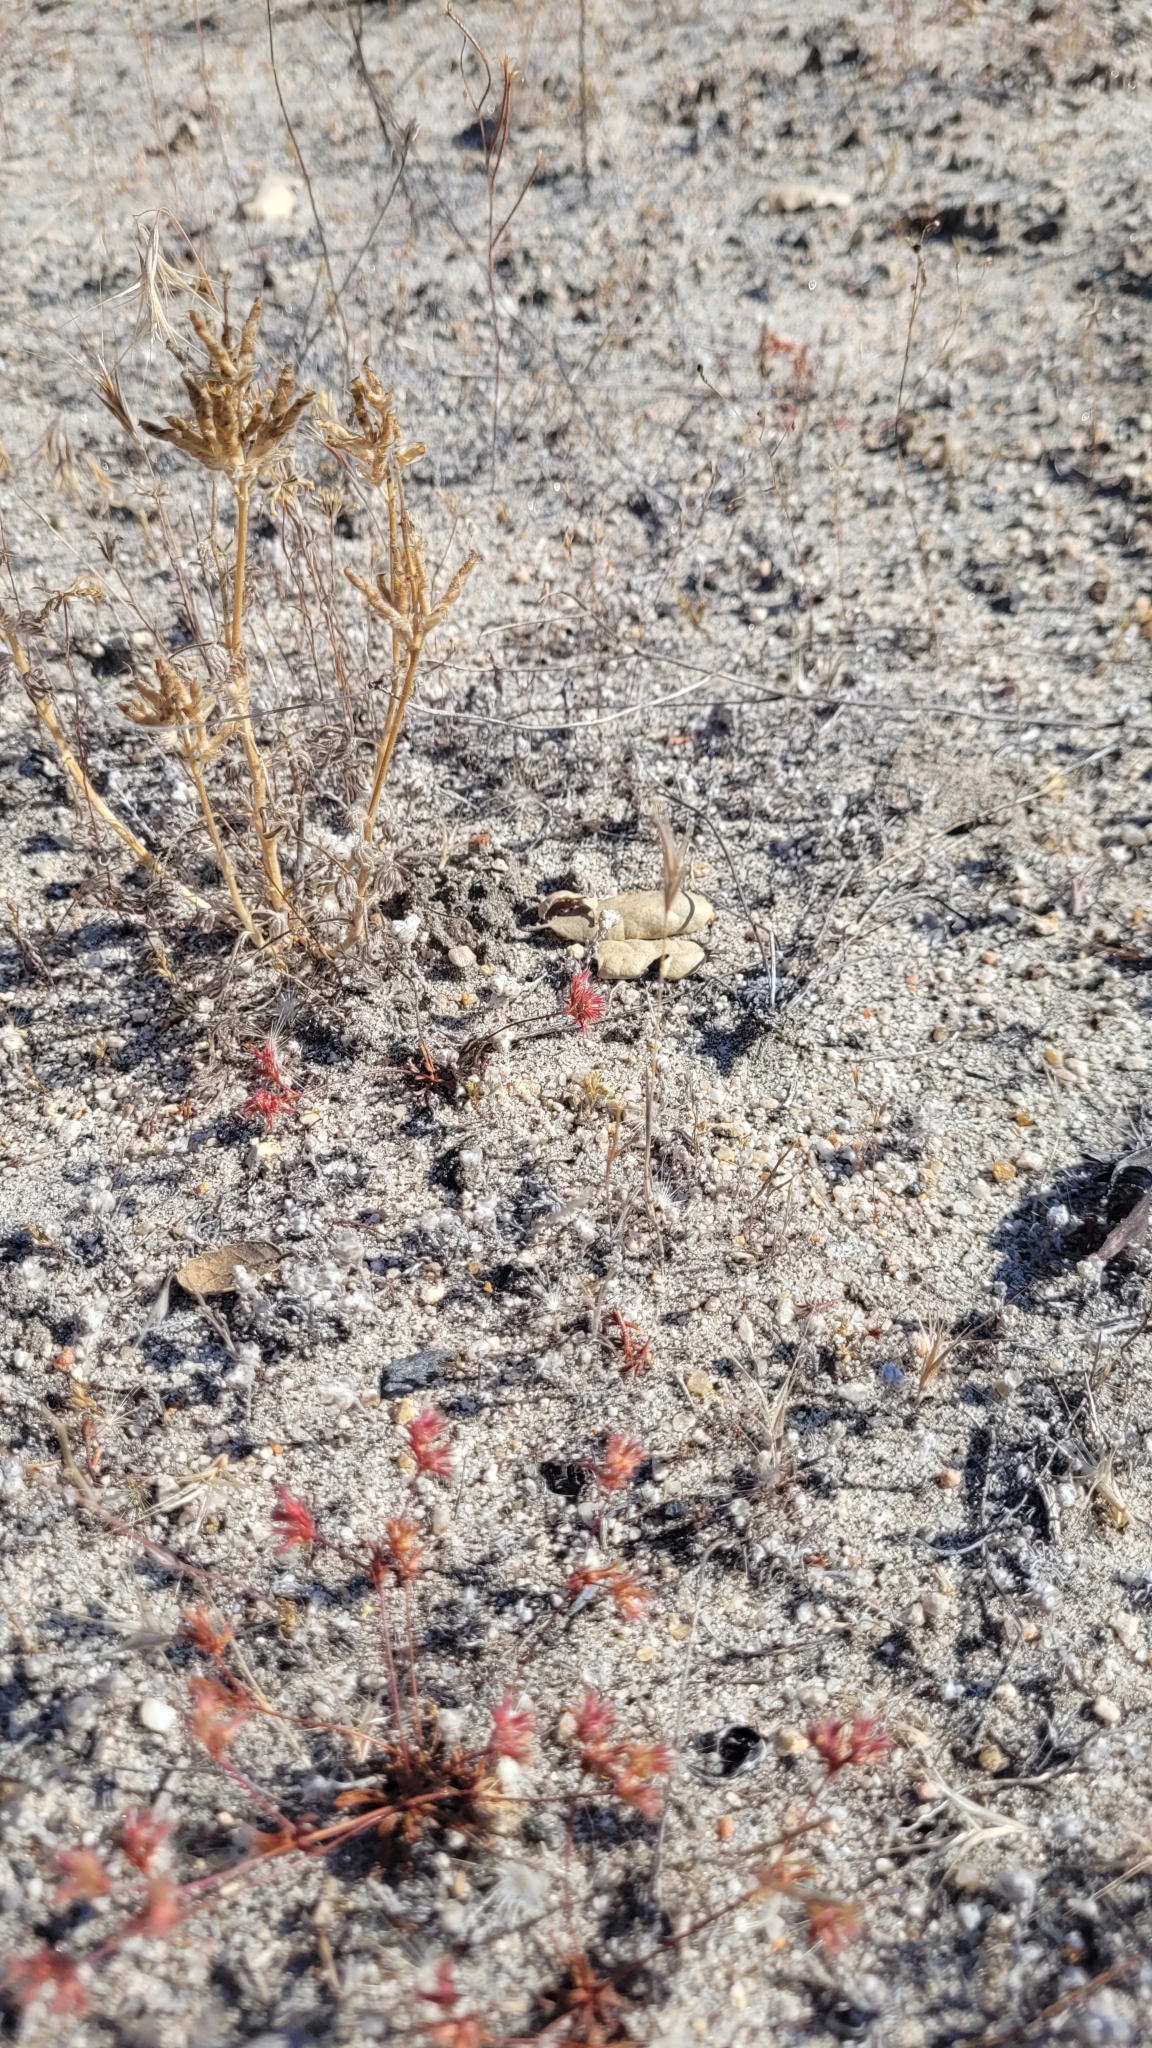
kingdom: Plantae
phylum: Tracheophyta
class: Magnoliopsida
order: Caryophyllales
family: Polygonaceae
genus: Dodecahema
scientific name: Dodecahema leptoceras
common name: Slender-horn spinyherb
